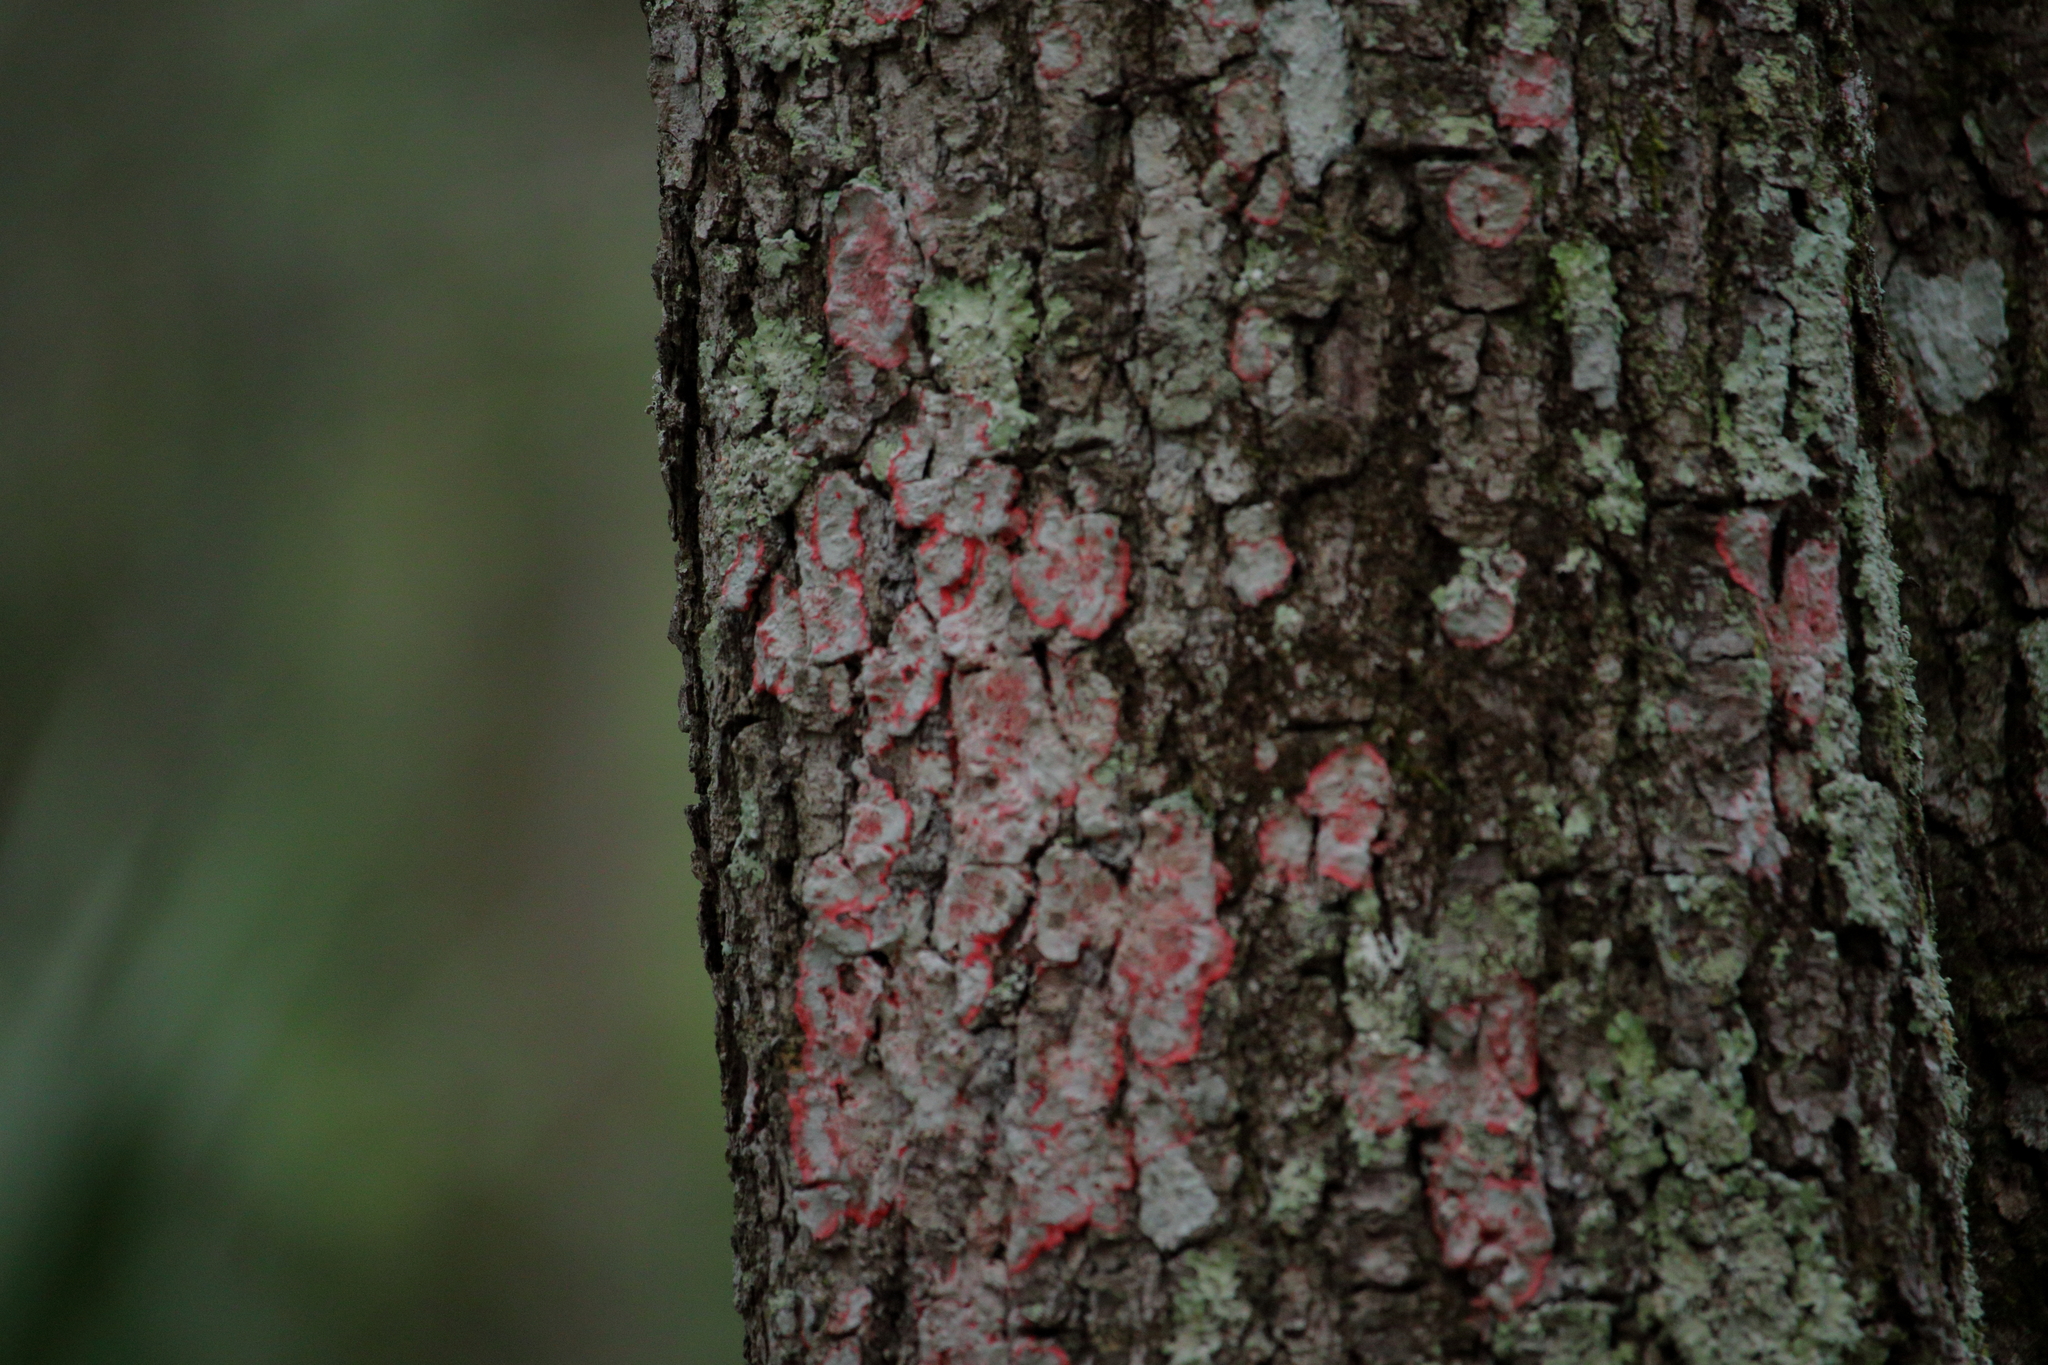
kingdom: Fungi
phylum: Ascomycota
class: Arthoniomycetes
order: Arthoniales
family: Arthoniaceae
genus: Herpothallon
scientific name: Herpothallon rubrocinctum
